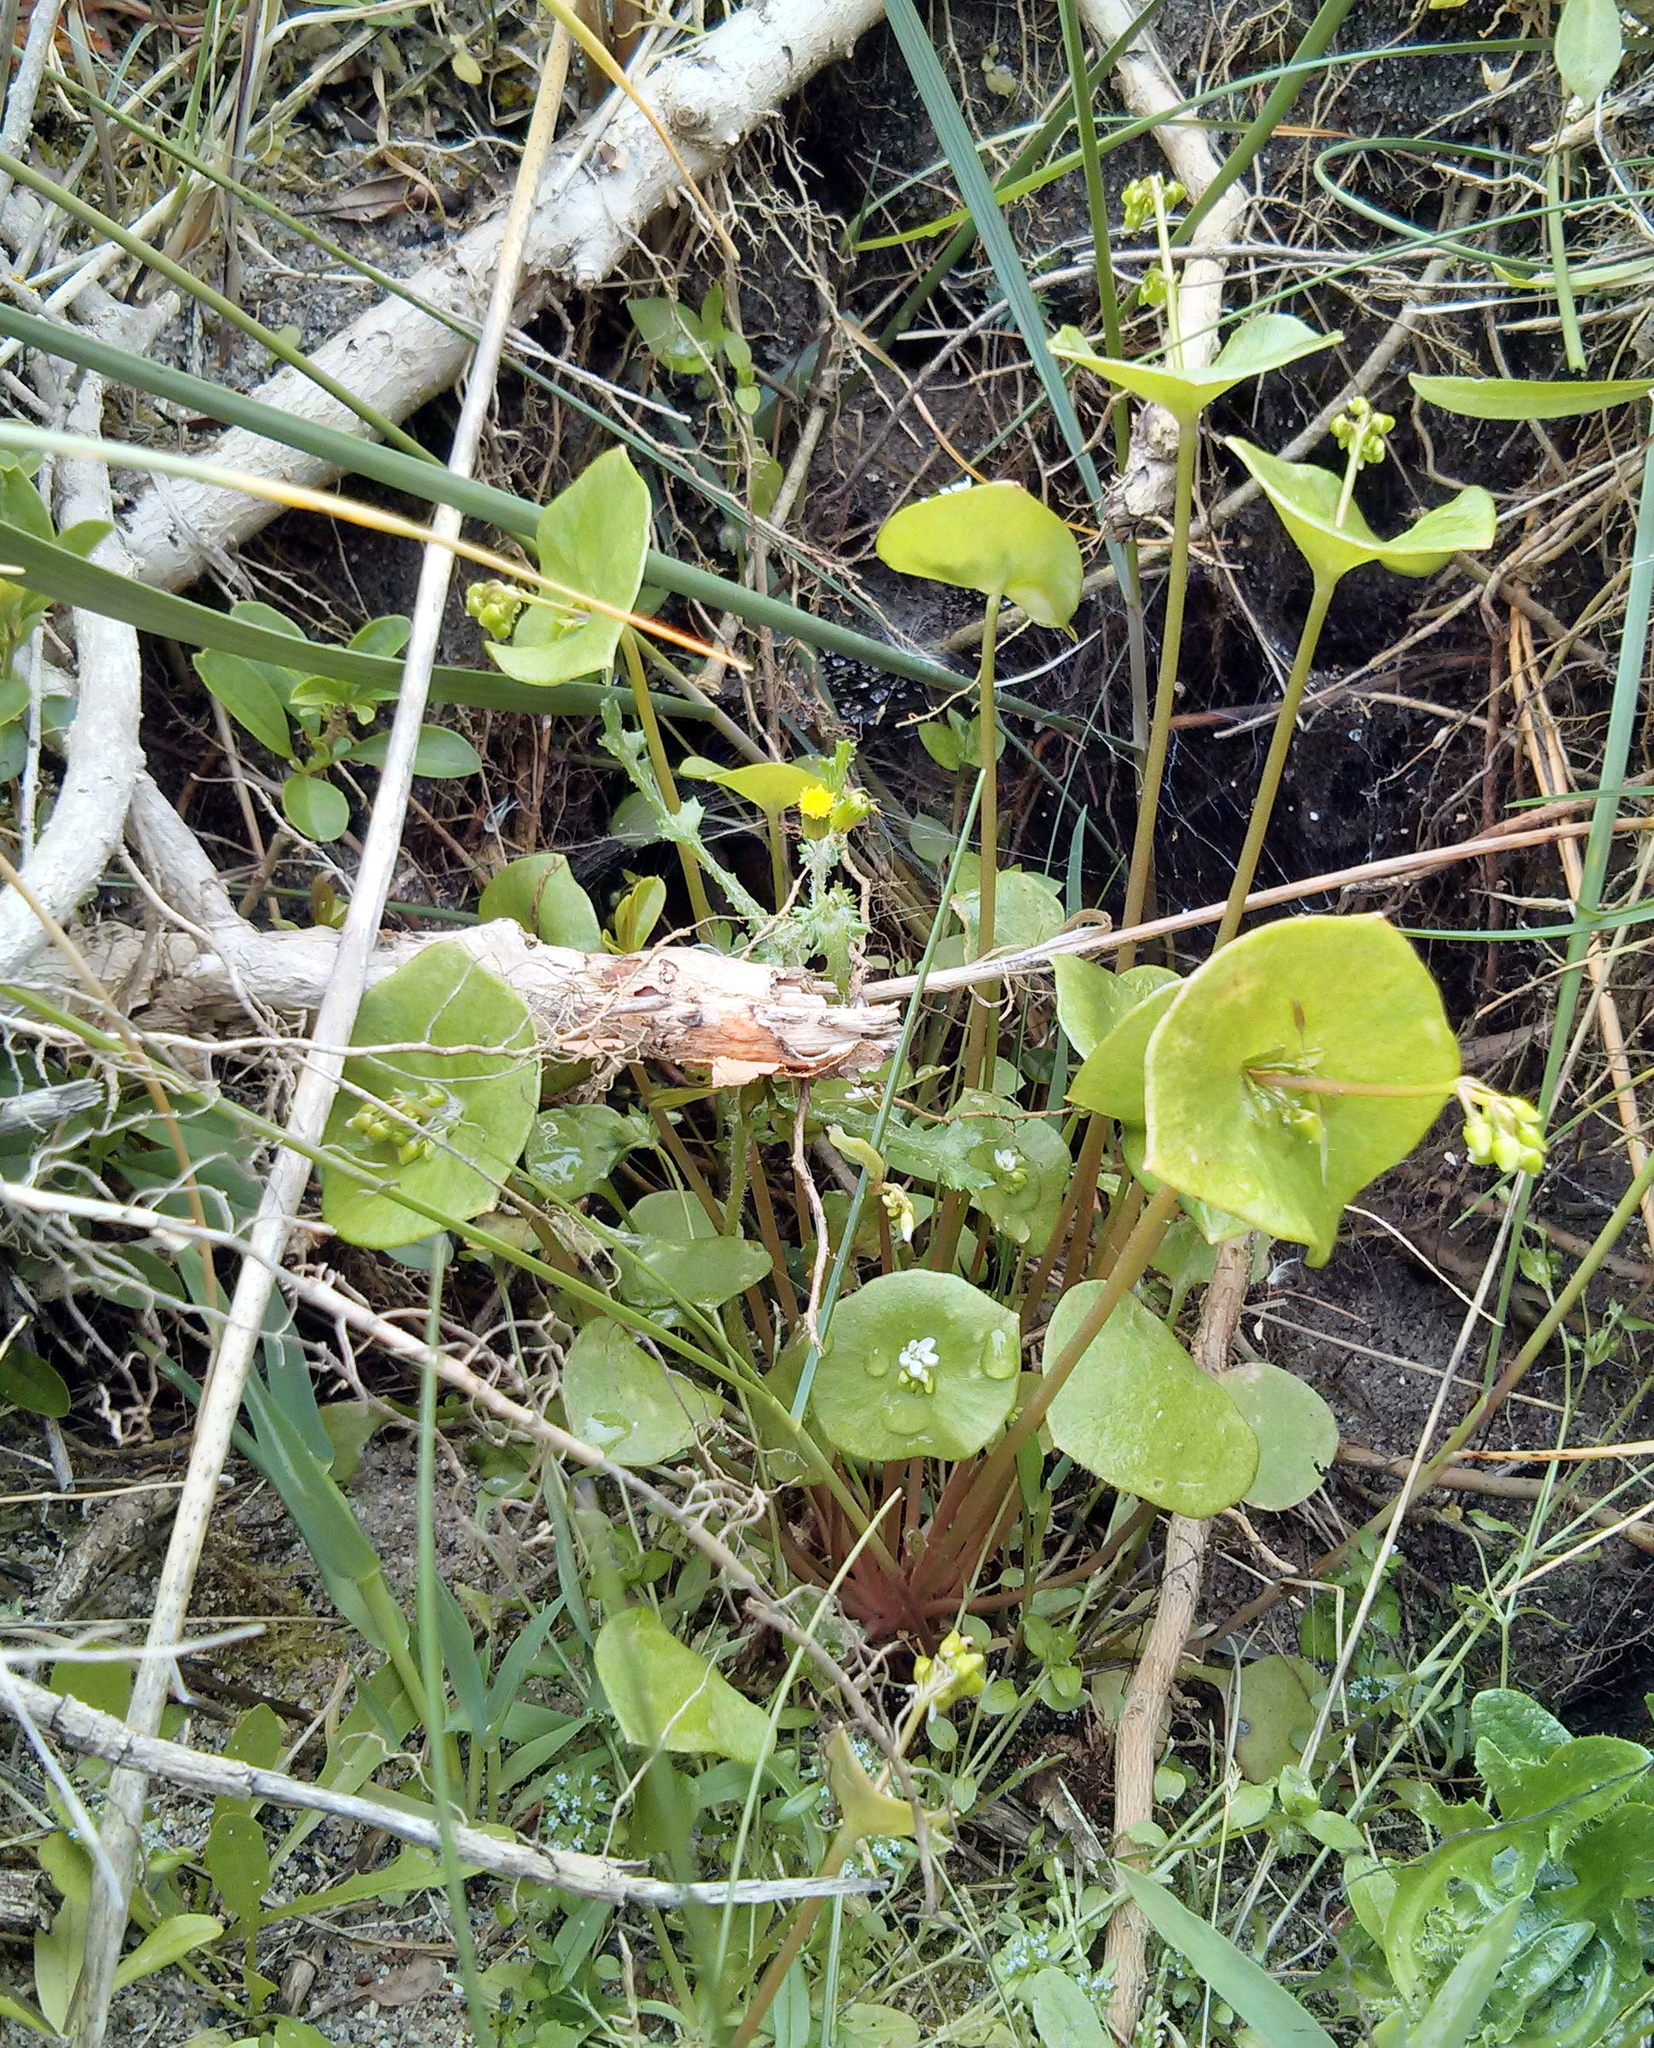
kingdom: Plantae
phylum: Tracheophyta
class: Magnoliopsida
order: Caryophyllales
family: Montiaceae
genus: Claytonia
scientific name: Claytonia perfoliata
